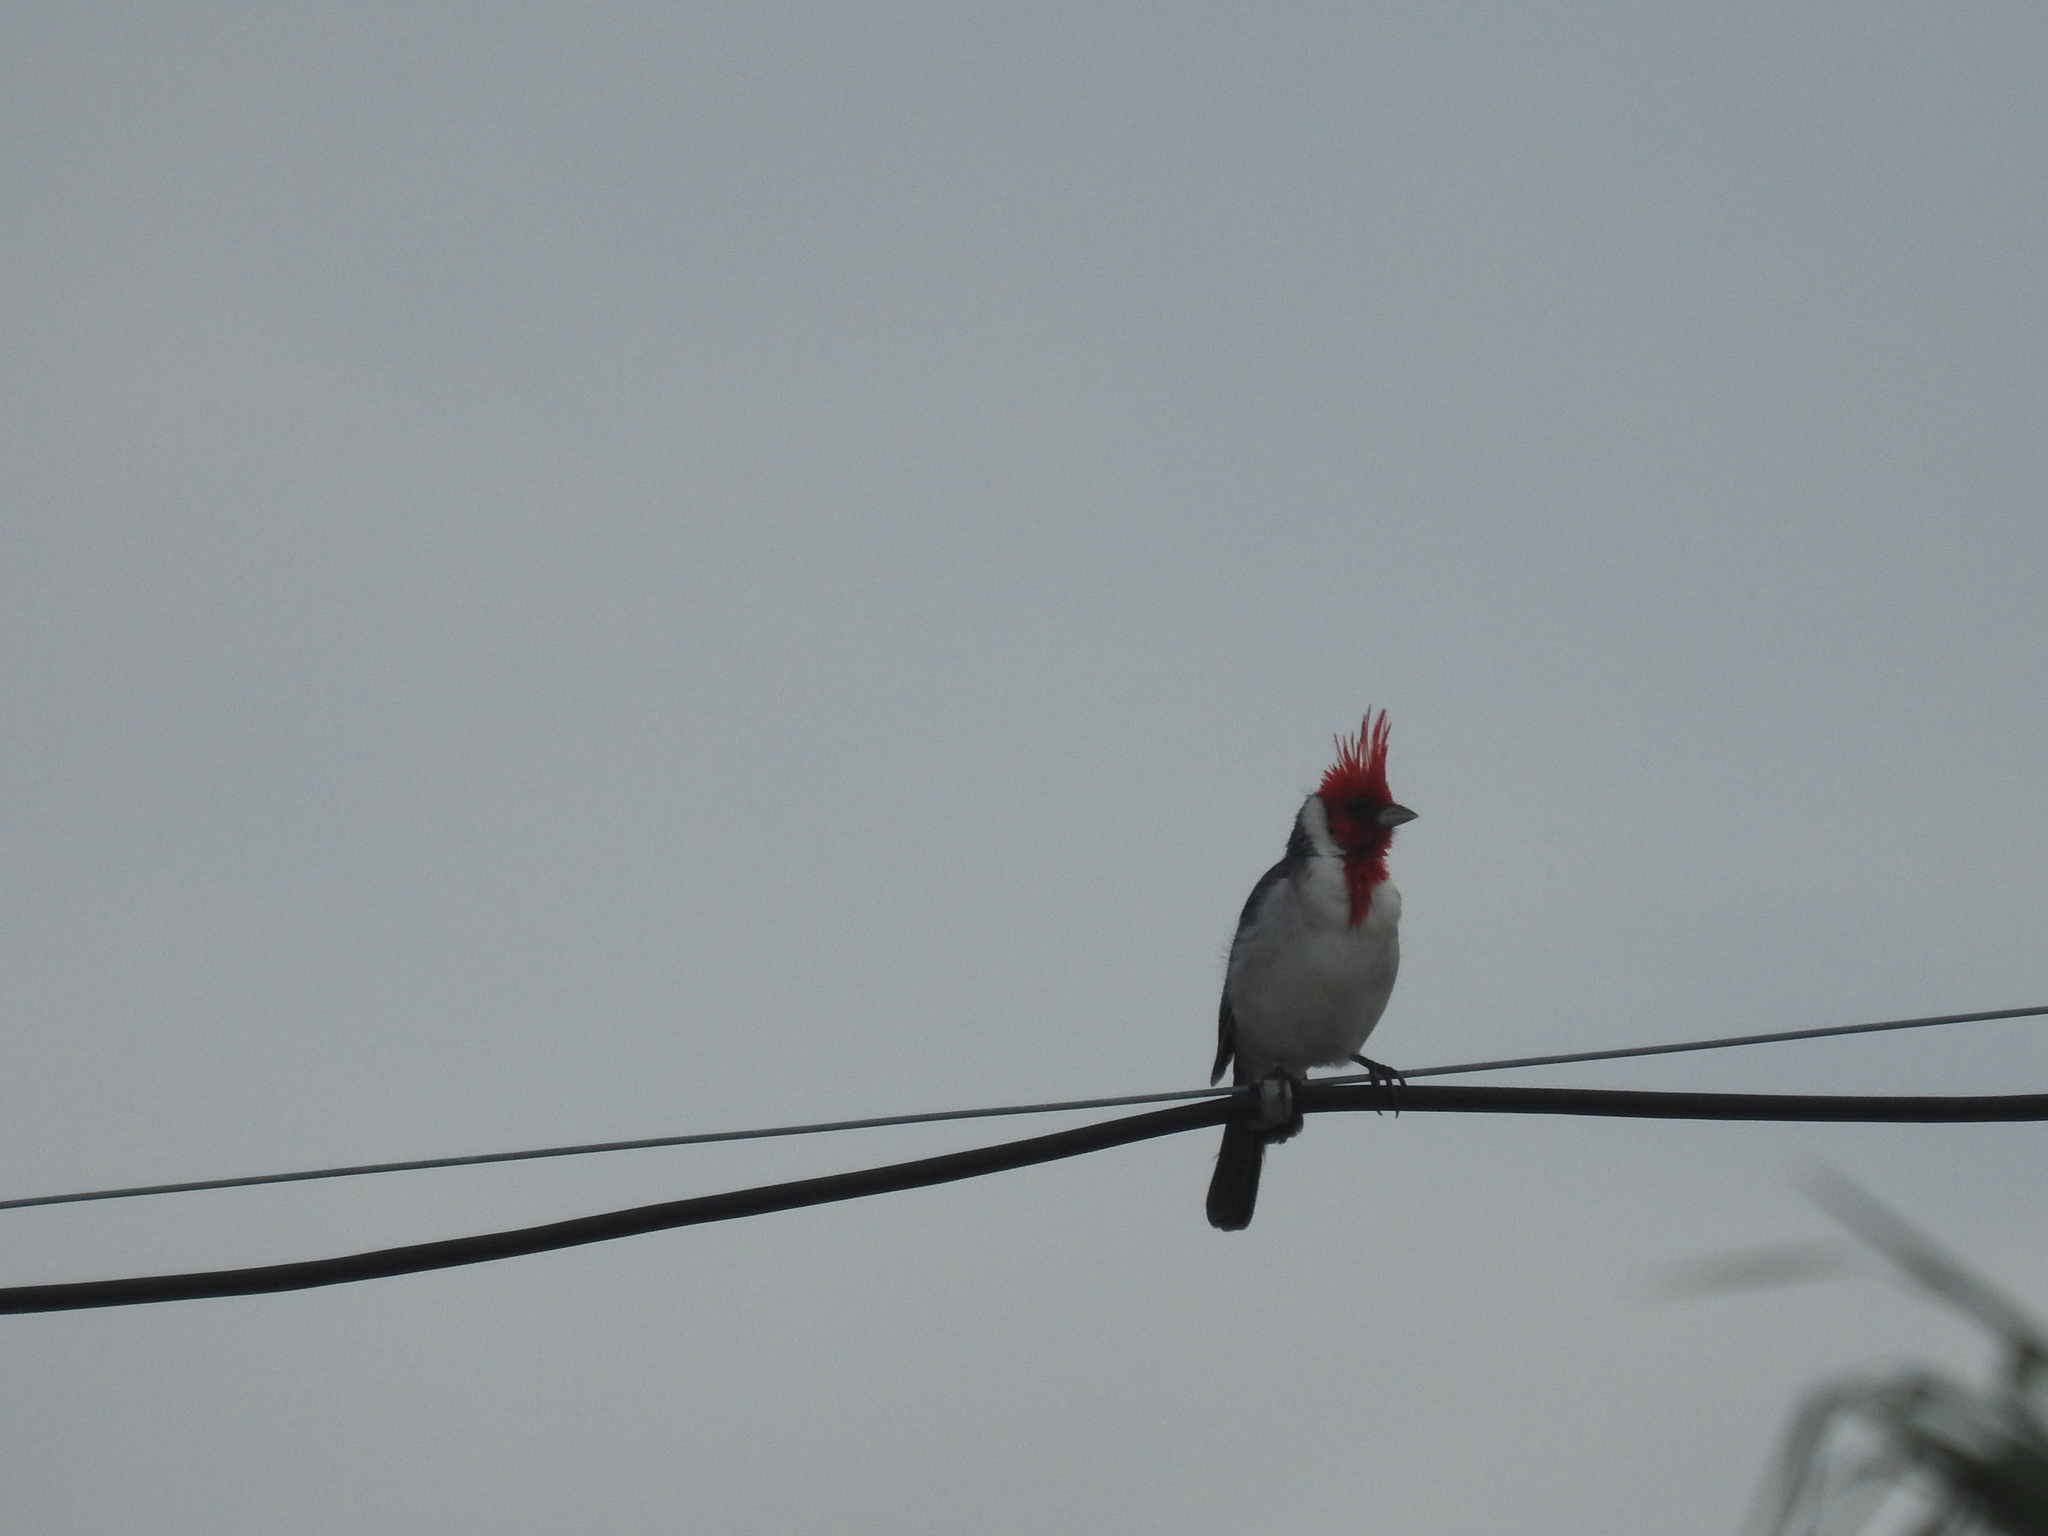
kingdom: Animalia
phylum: Chordata
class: Aves
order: Passeriformes
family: Thraupidae
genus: Paroaria
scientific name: Paroaria coronata
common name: Red-crested cardinal
